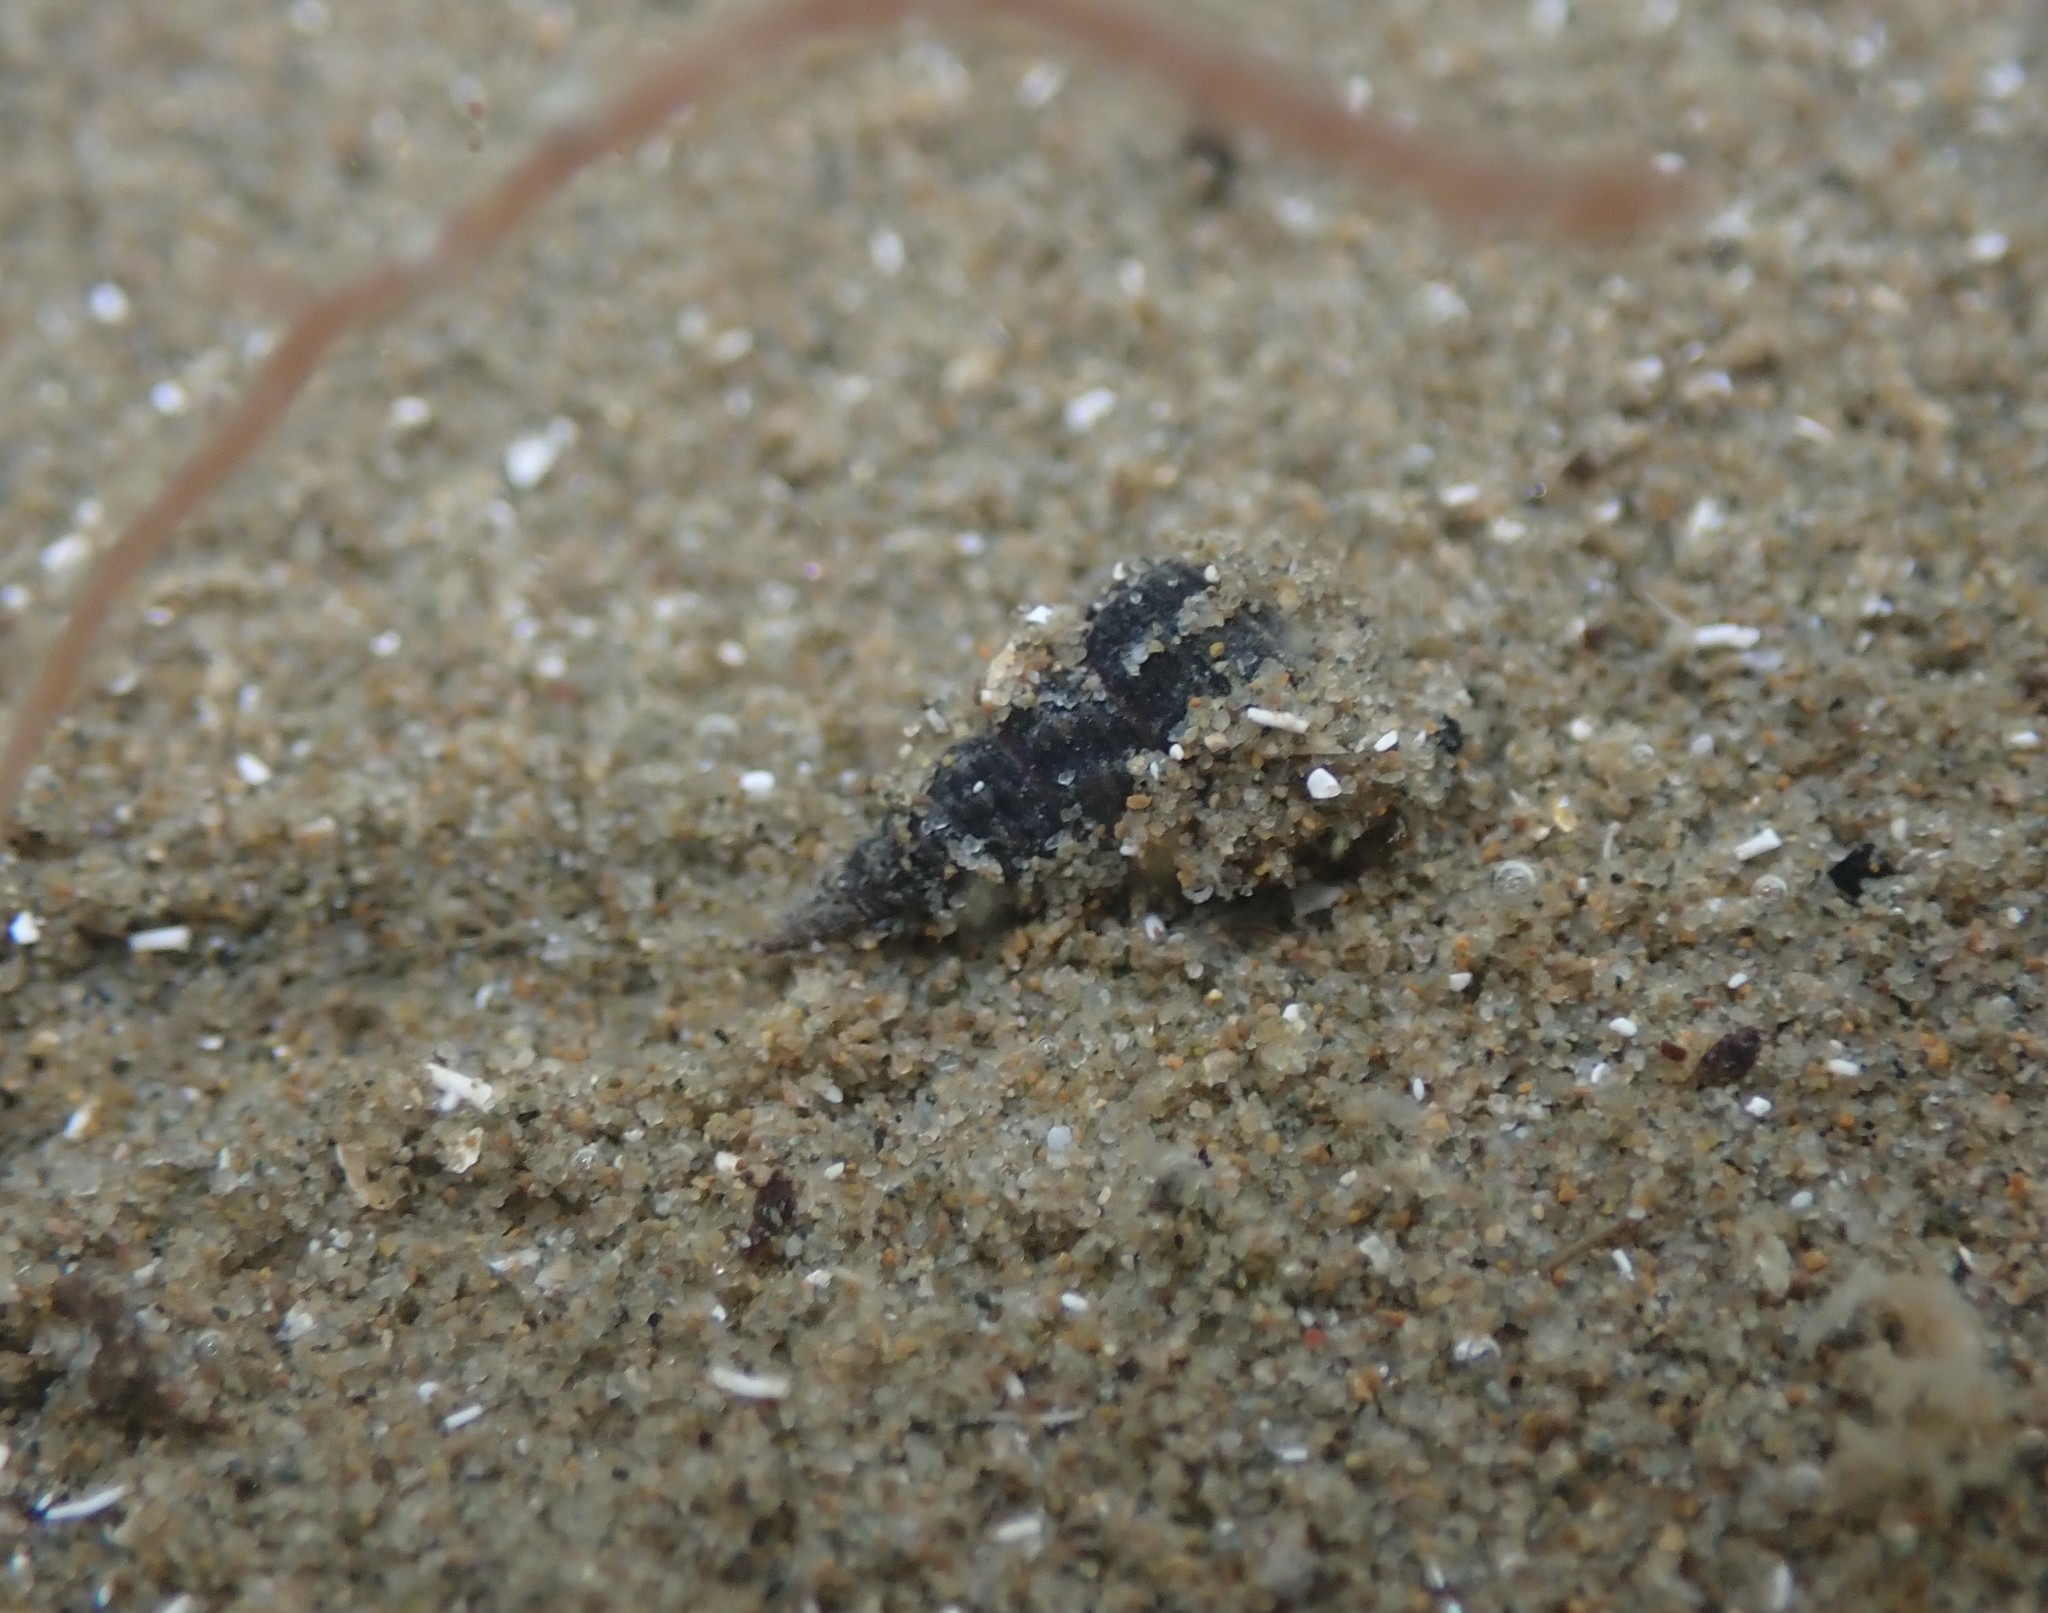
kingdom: Animalia
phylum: Mollusca
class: Gastropoda
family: Batillariidae
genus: Zeacumantus
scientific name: Zeacumantus lutulentus
